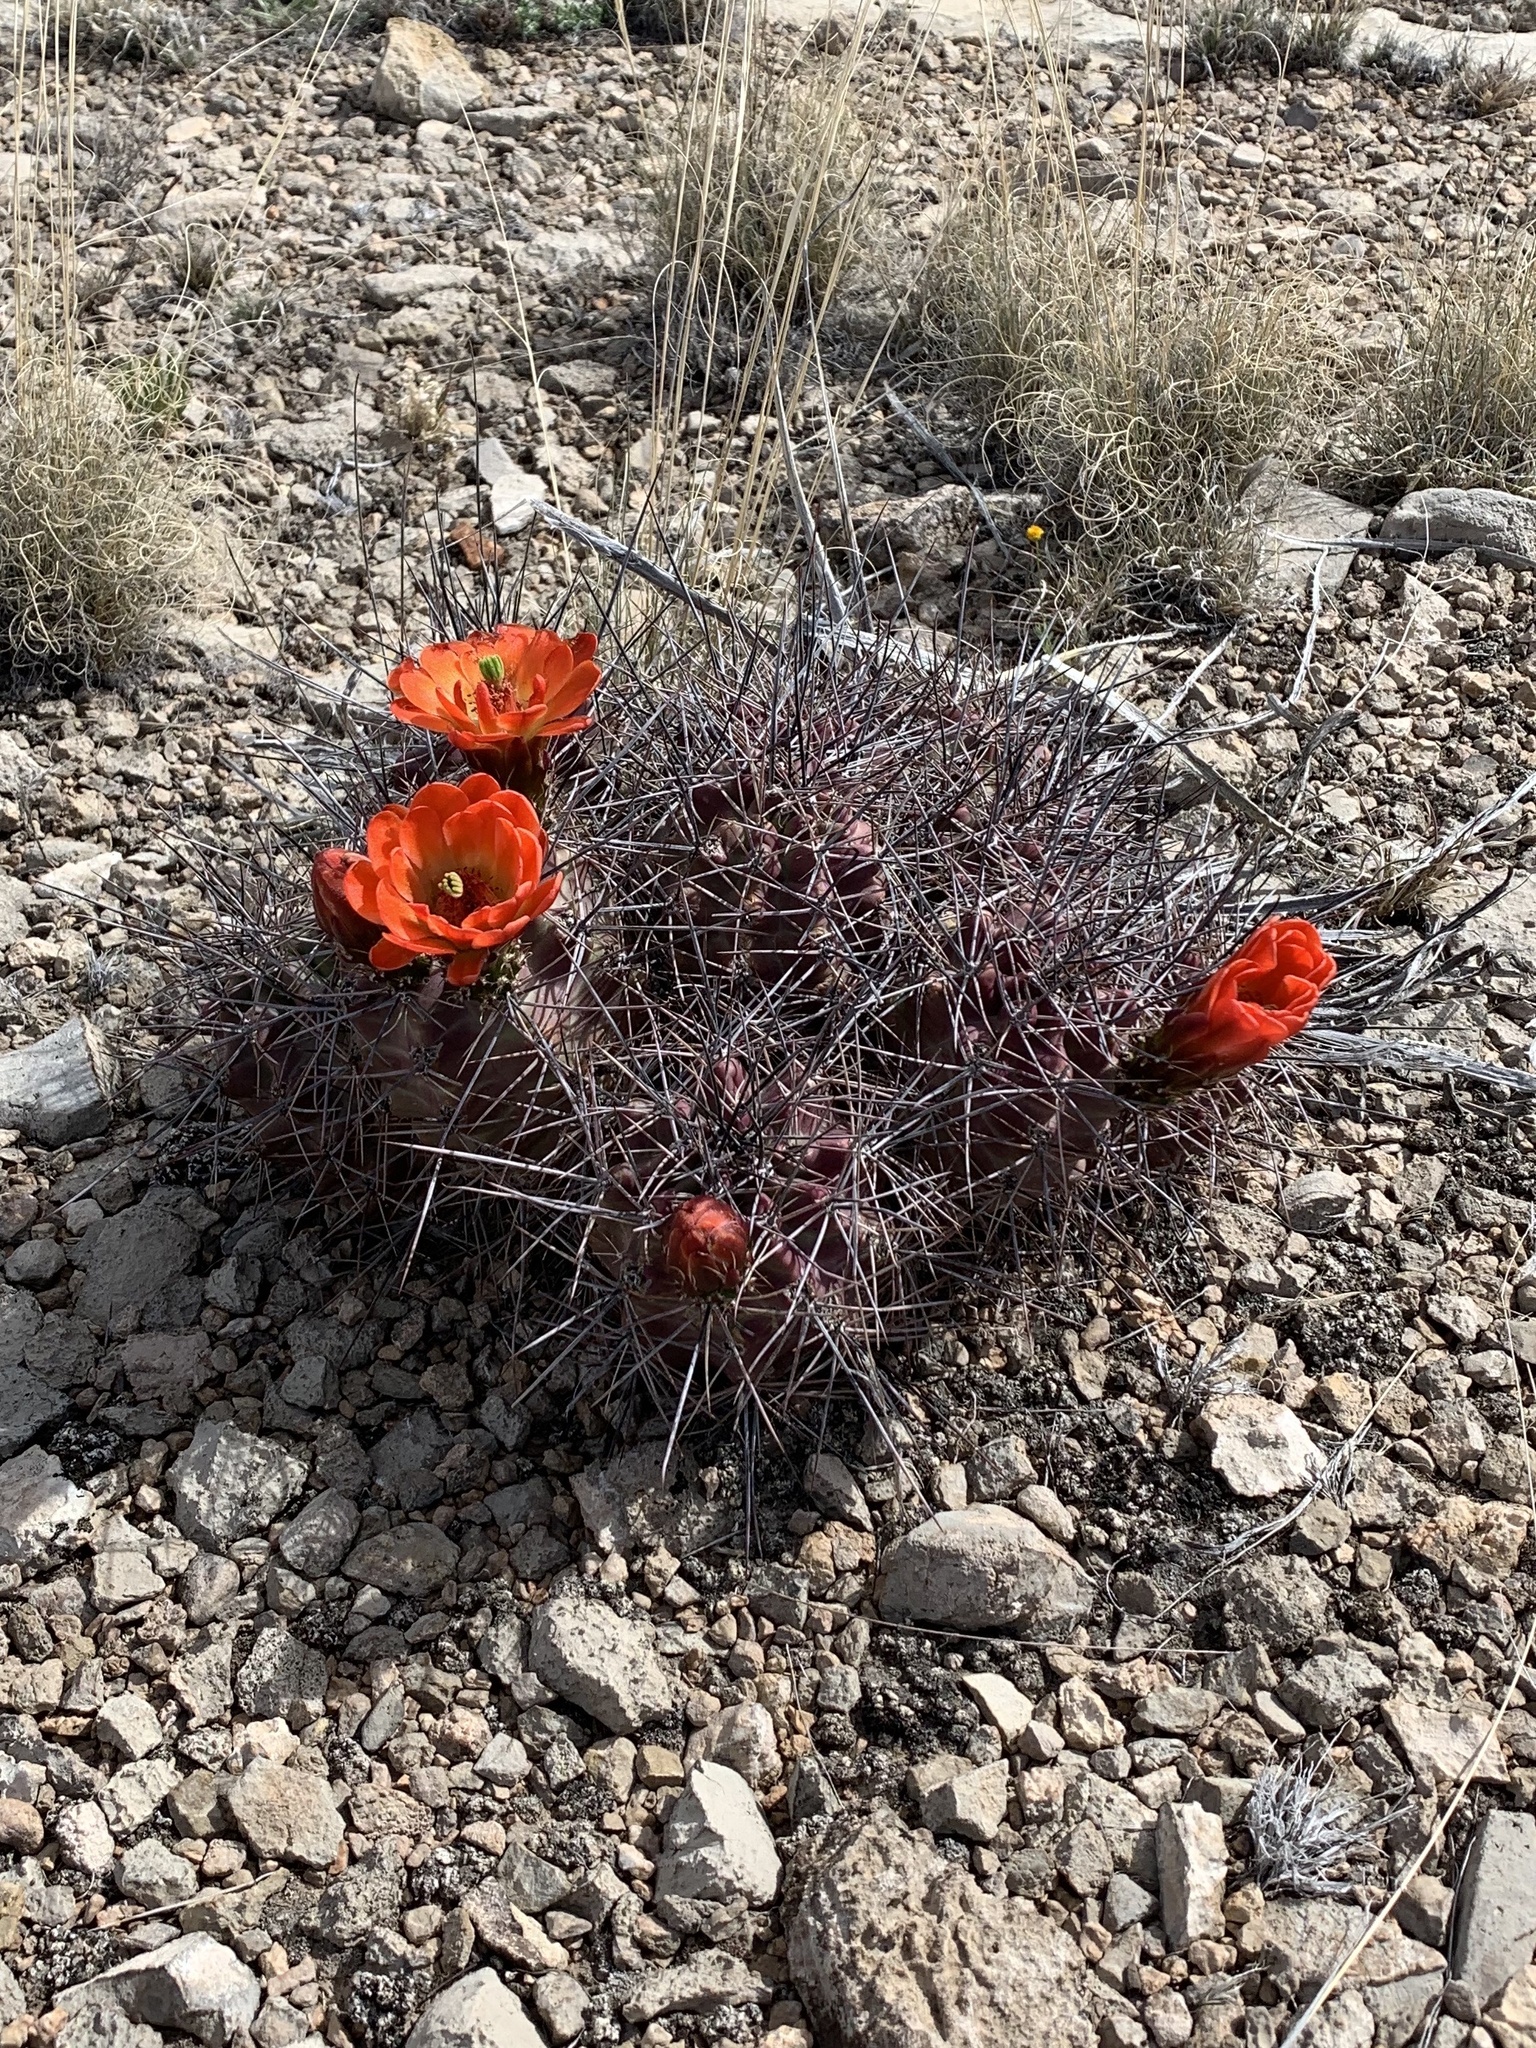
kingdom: Plantae
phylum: Tracheophyta
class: Magnoliopsida
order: Caryophyllales
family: Cactaceae
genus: Echinocereus
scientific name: Echinocereus coccineus
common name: Scarlet hedgehog cactus
